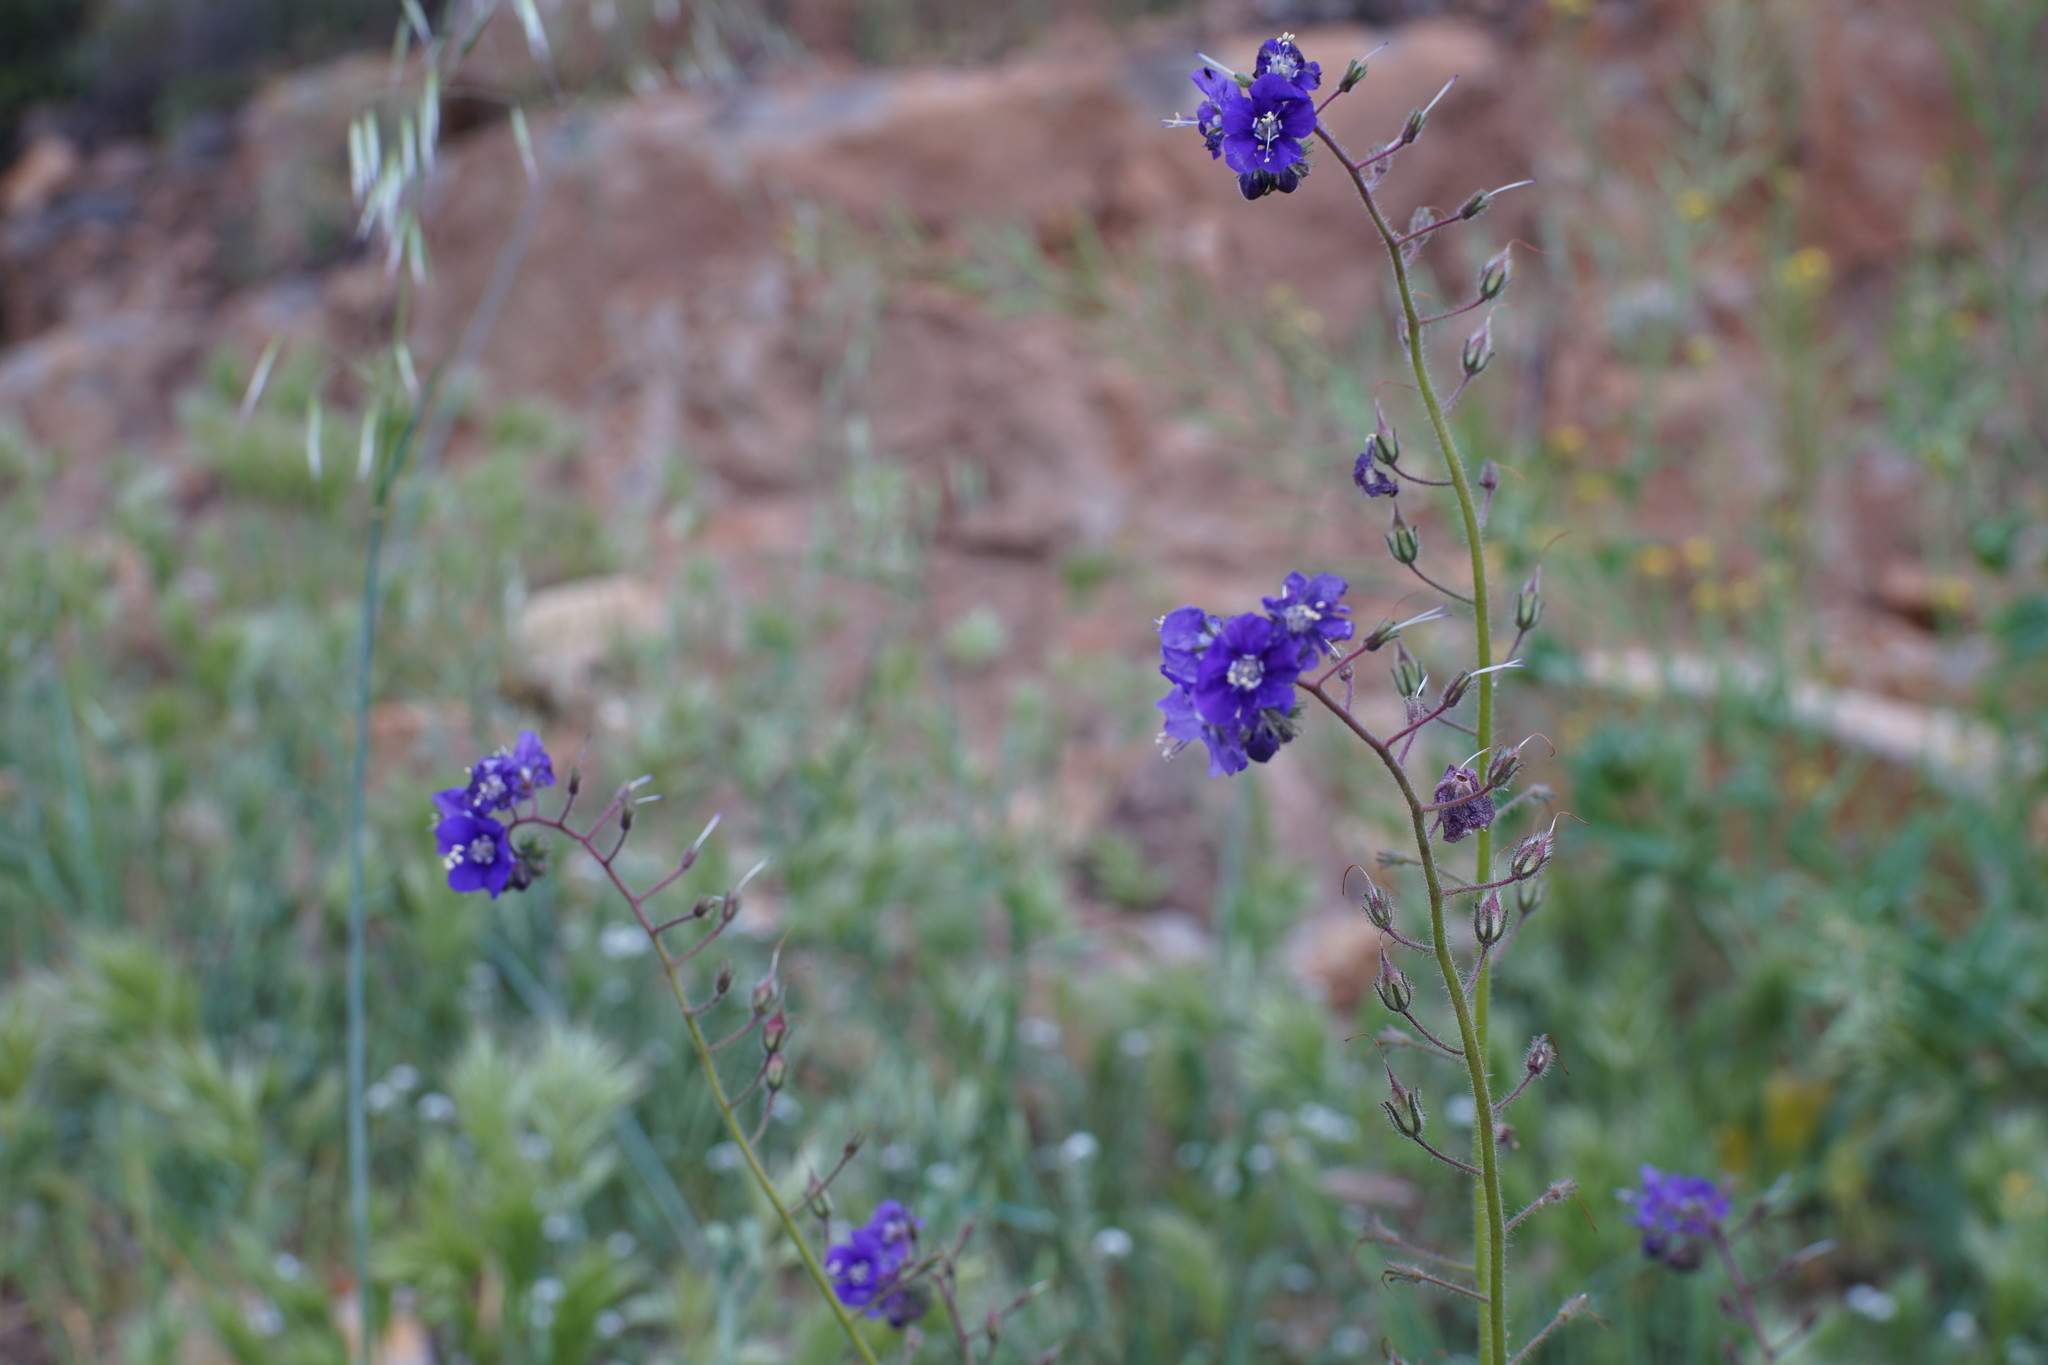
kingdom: Plantae
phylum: Tracheophyta
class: Magnoliopsida
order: Boraginales
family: Hydrophyllaceae
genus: Phacelia
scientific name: Phacelia parryi
